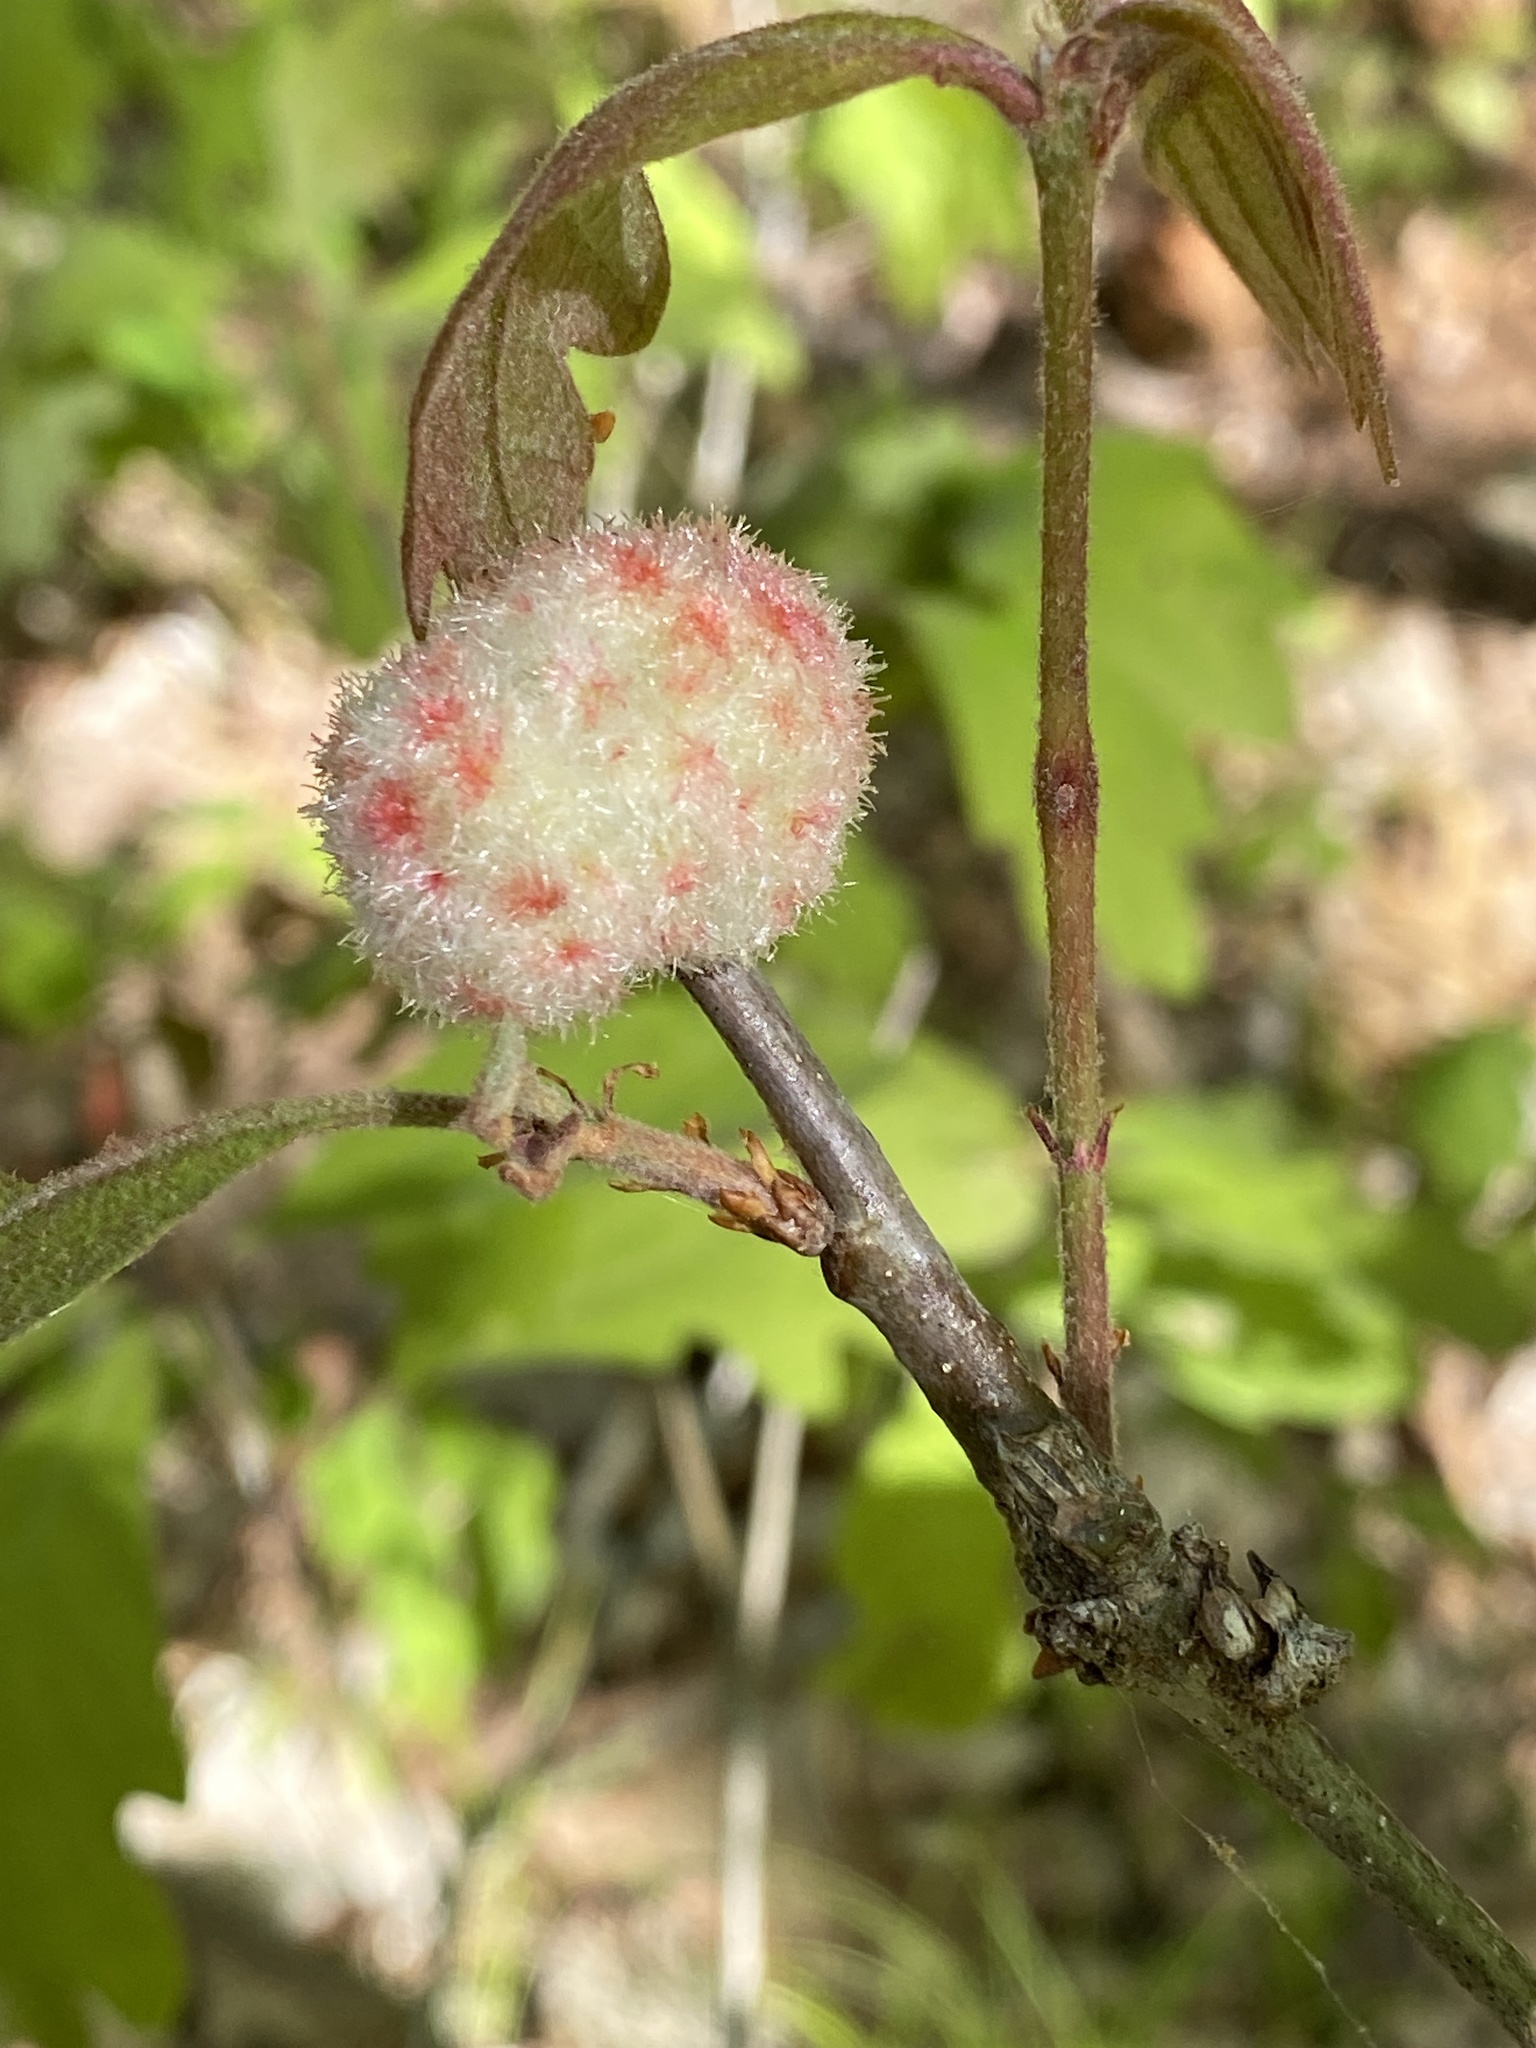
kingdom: Animalia
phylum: Arthropoda
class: Insecta
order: Hymenoptera
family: Cynipidae
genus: Callirhytis
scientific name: Callirhytis
